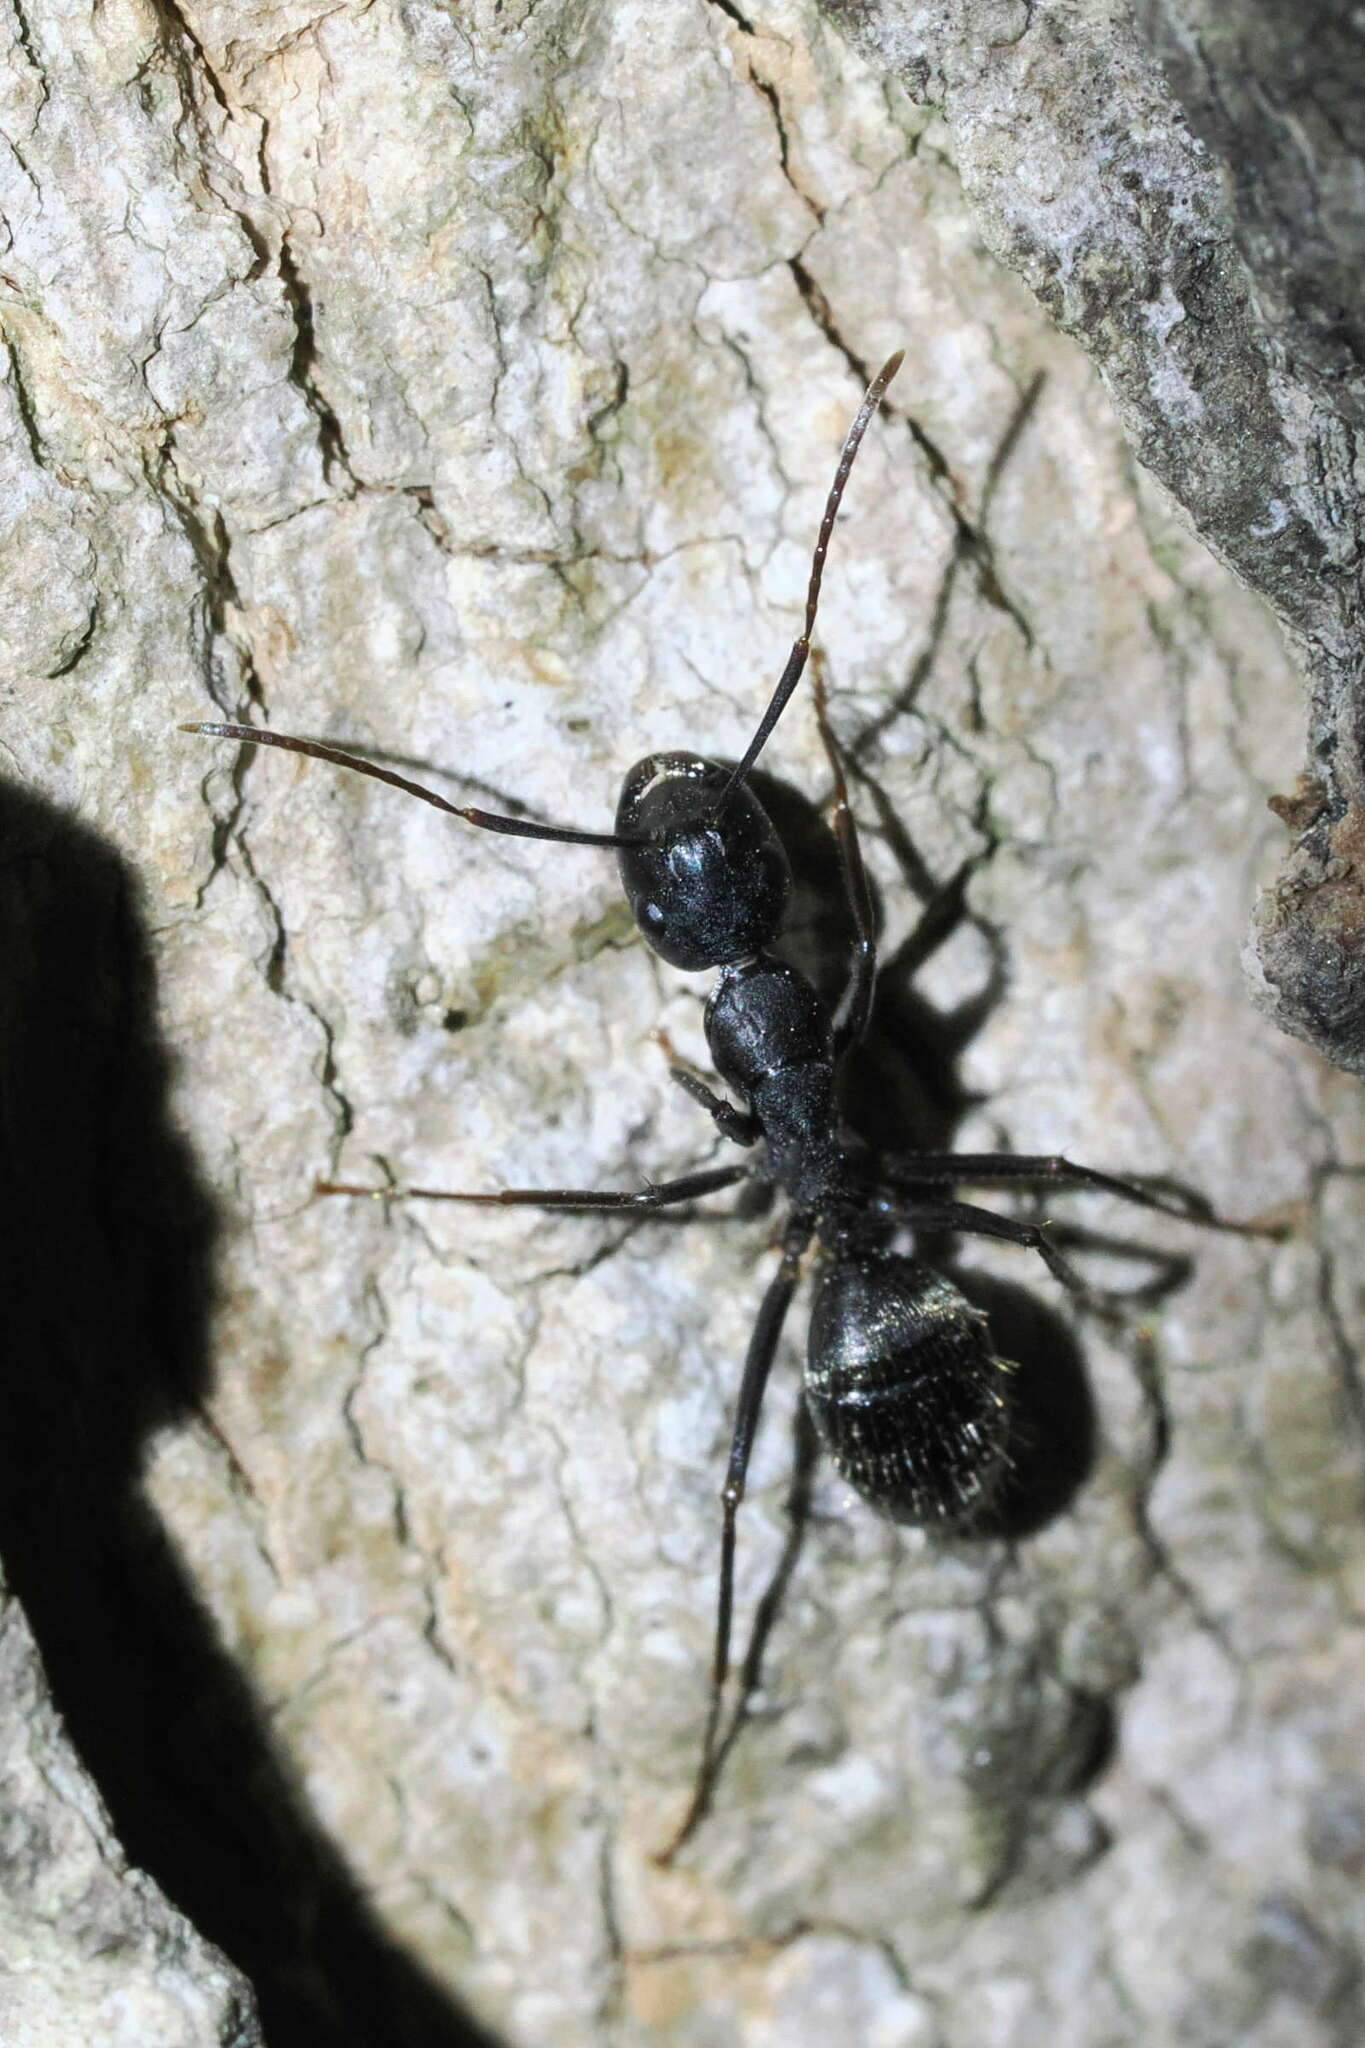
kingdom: Animalia
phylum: Arthropoda
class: Insecta
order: Hymenoptera
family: Formicidae
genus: Camponotus
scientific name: Camponotus pennsylvanicus
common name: Black carpenter ant
